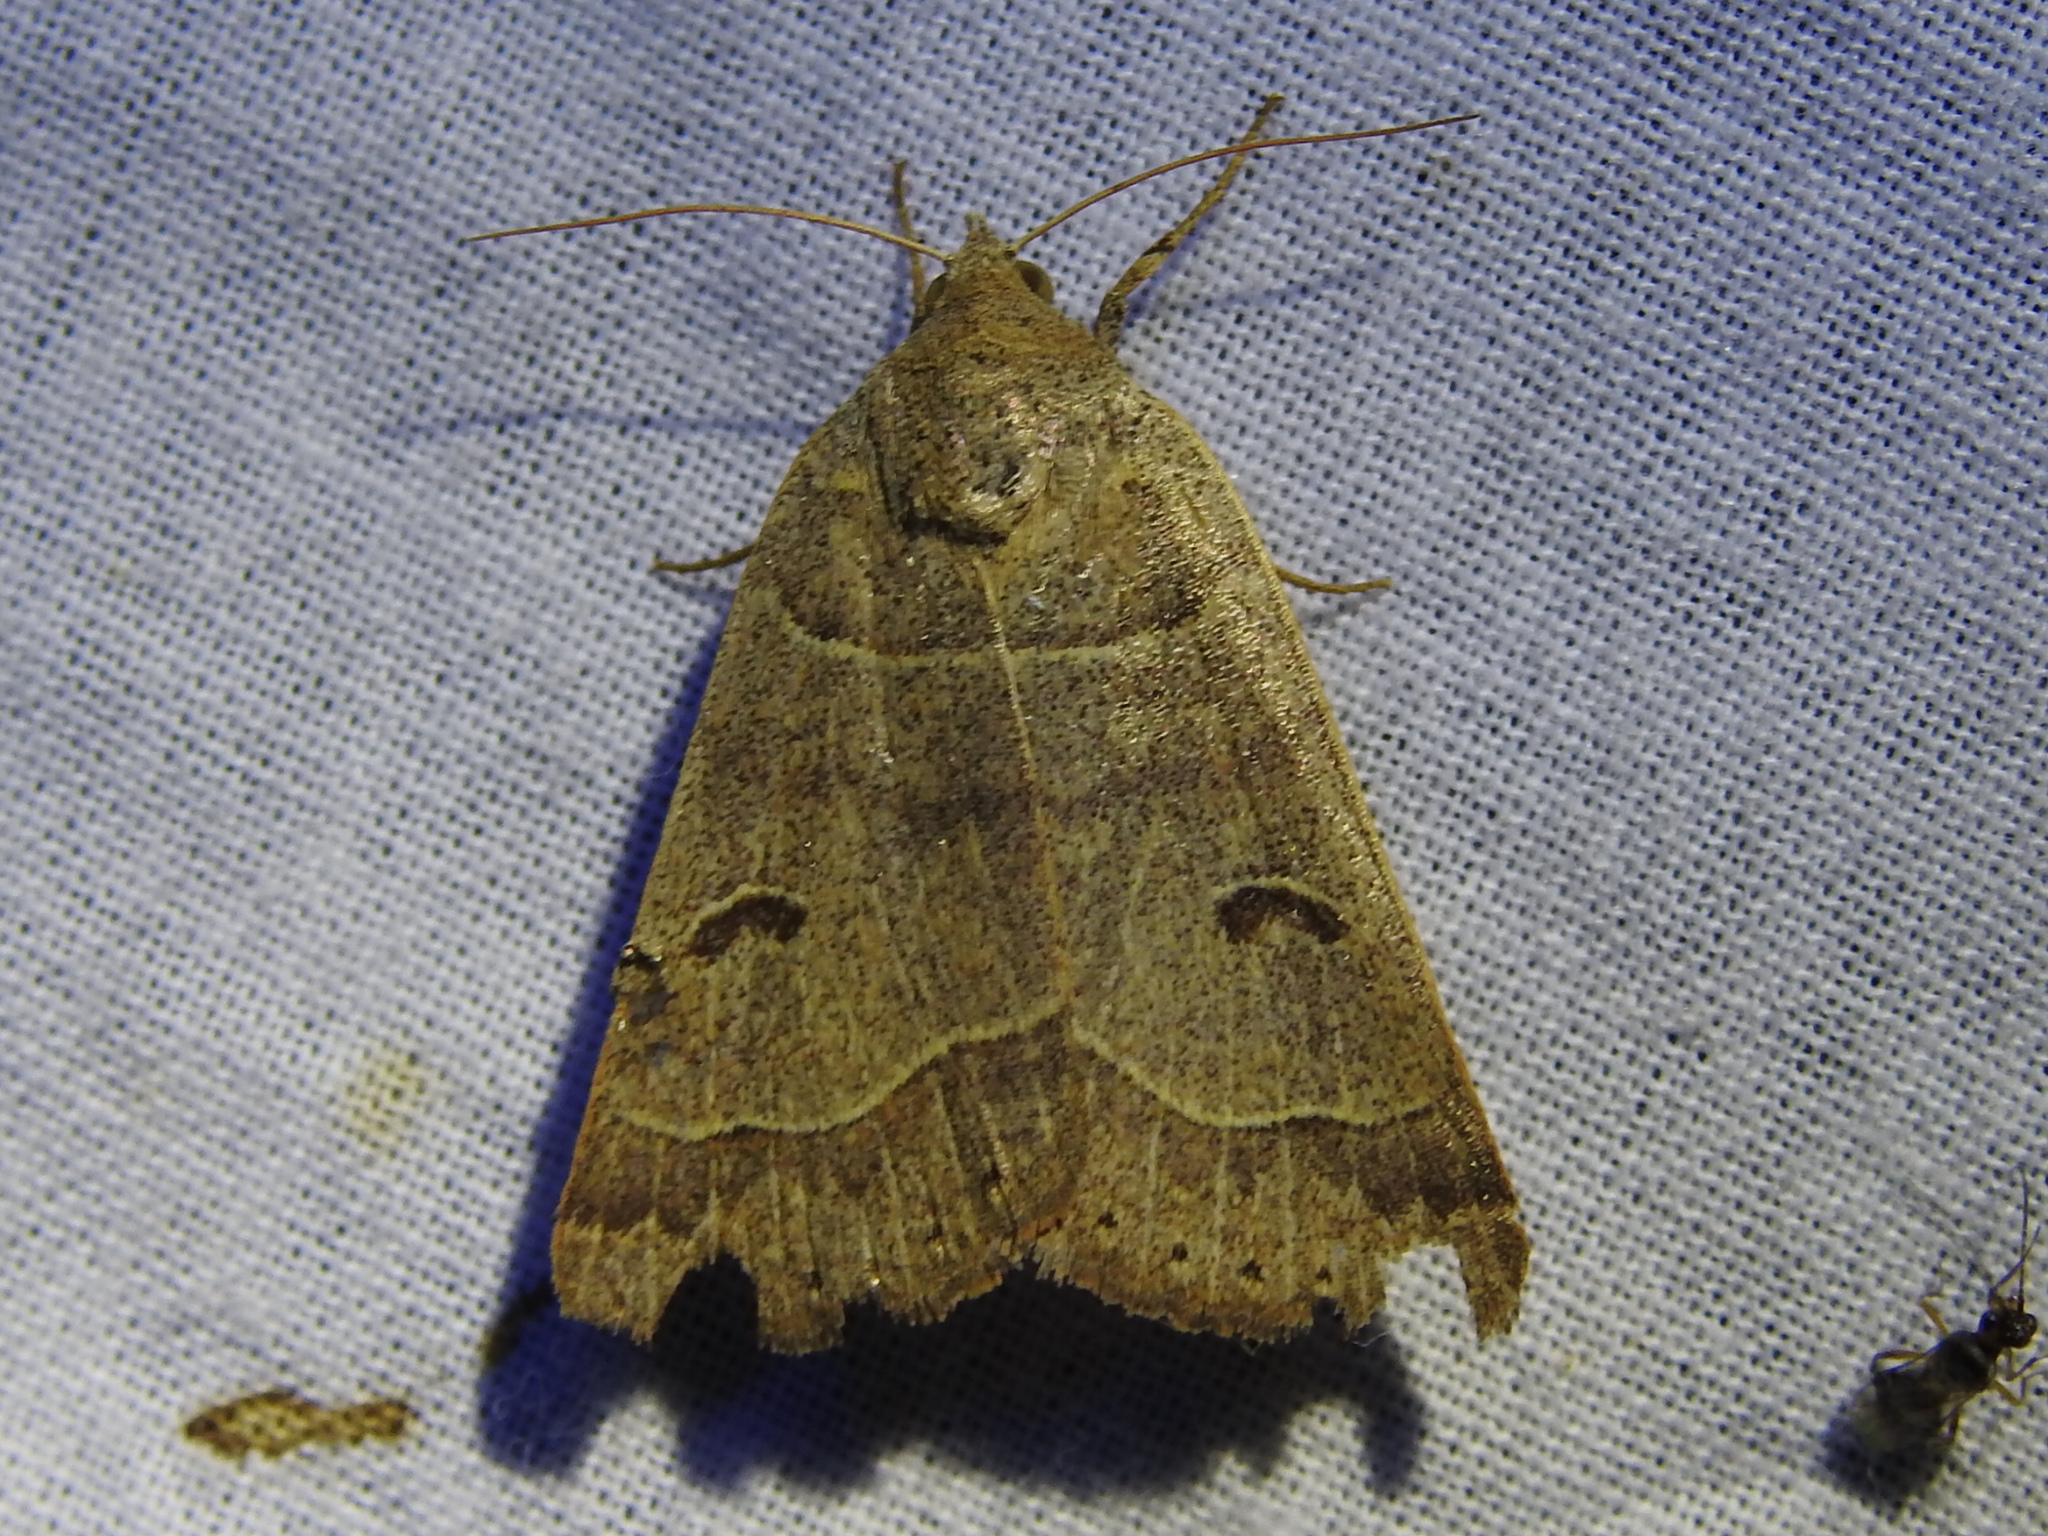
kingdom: Animalia
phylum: Arthropoda
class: Insecta
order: Lepidoptera
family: Erebidae
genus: Phoberia
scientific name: Phoberia atomaris
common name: Common oak moth
